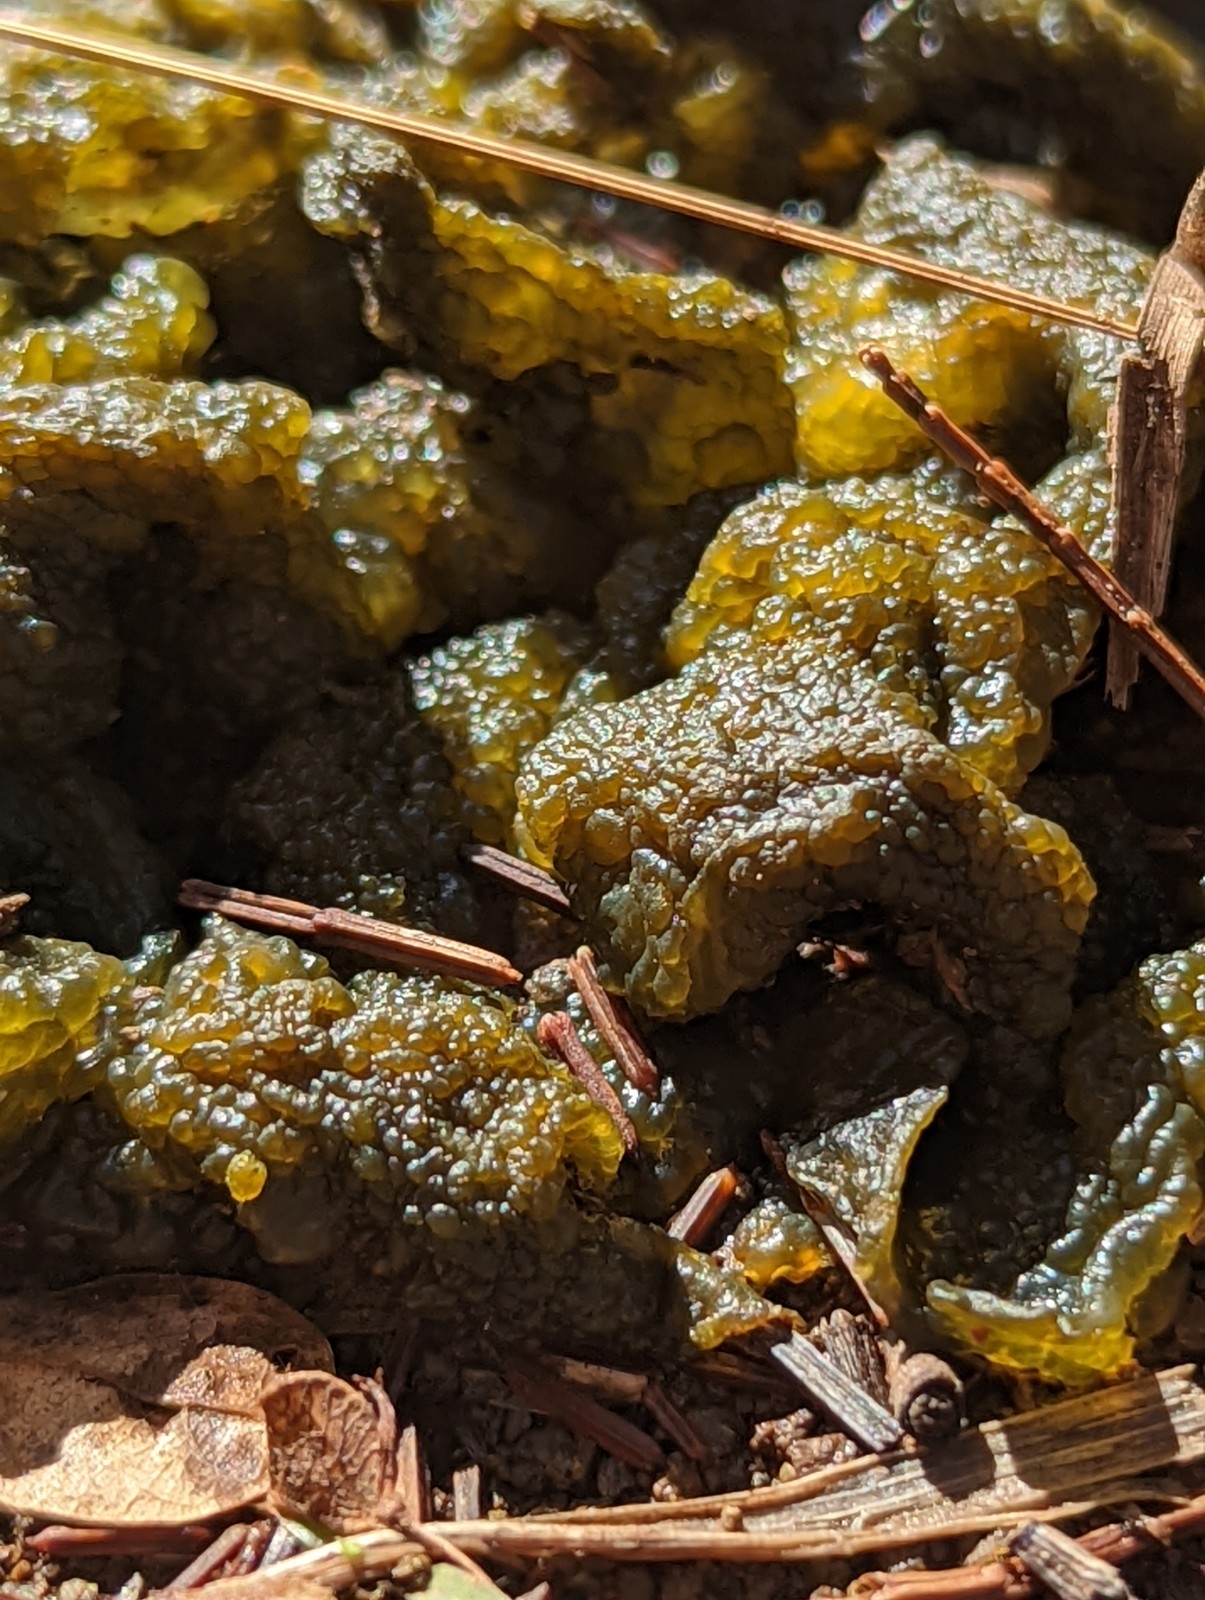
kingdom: Bacteria
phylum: Cyanobacteria
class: Cyanobacteriia
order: Cyanobacteriales
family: Nostocaceae
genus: Nostoc
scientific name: Nostoc commune
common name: Star jelly
